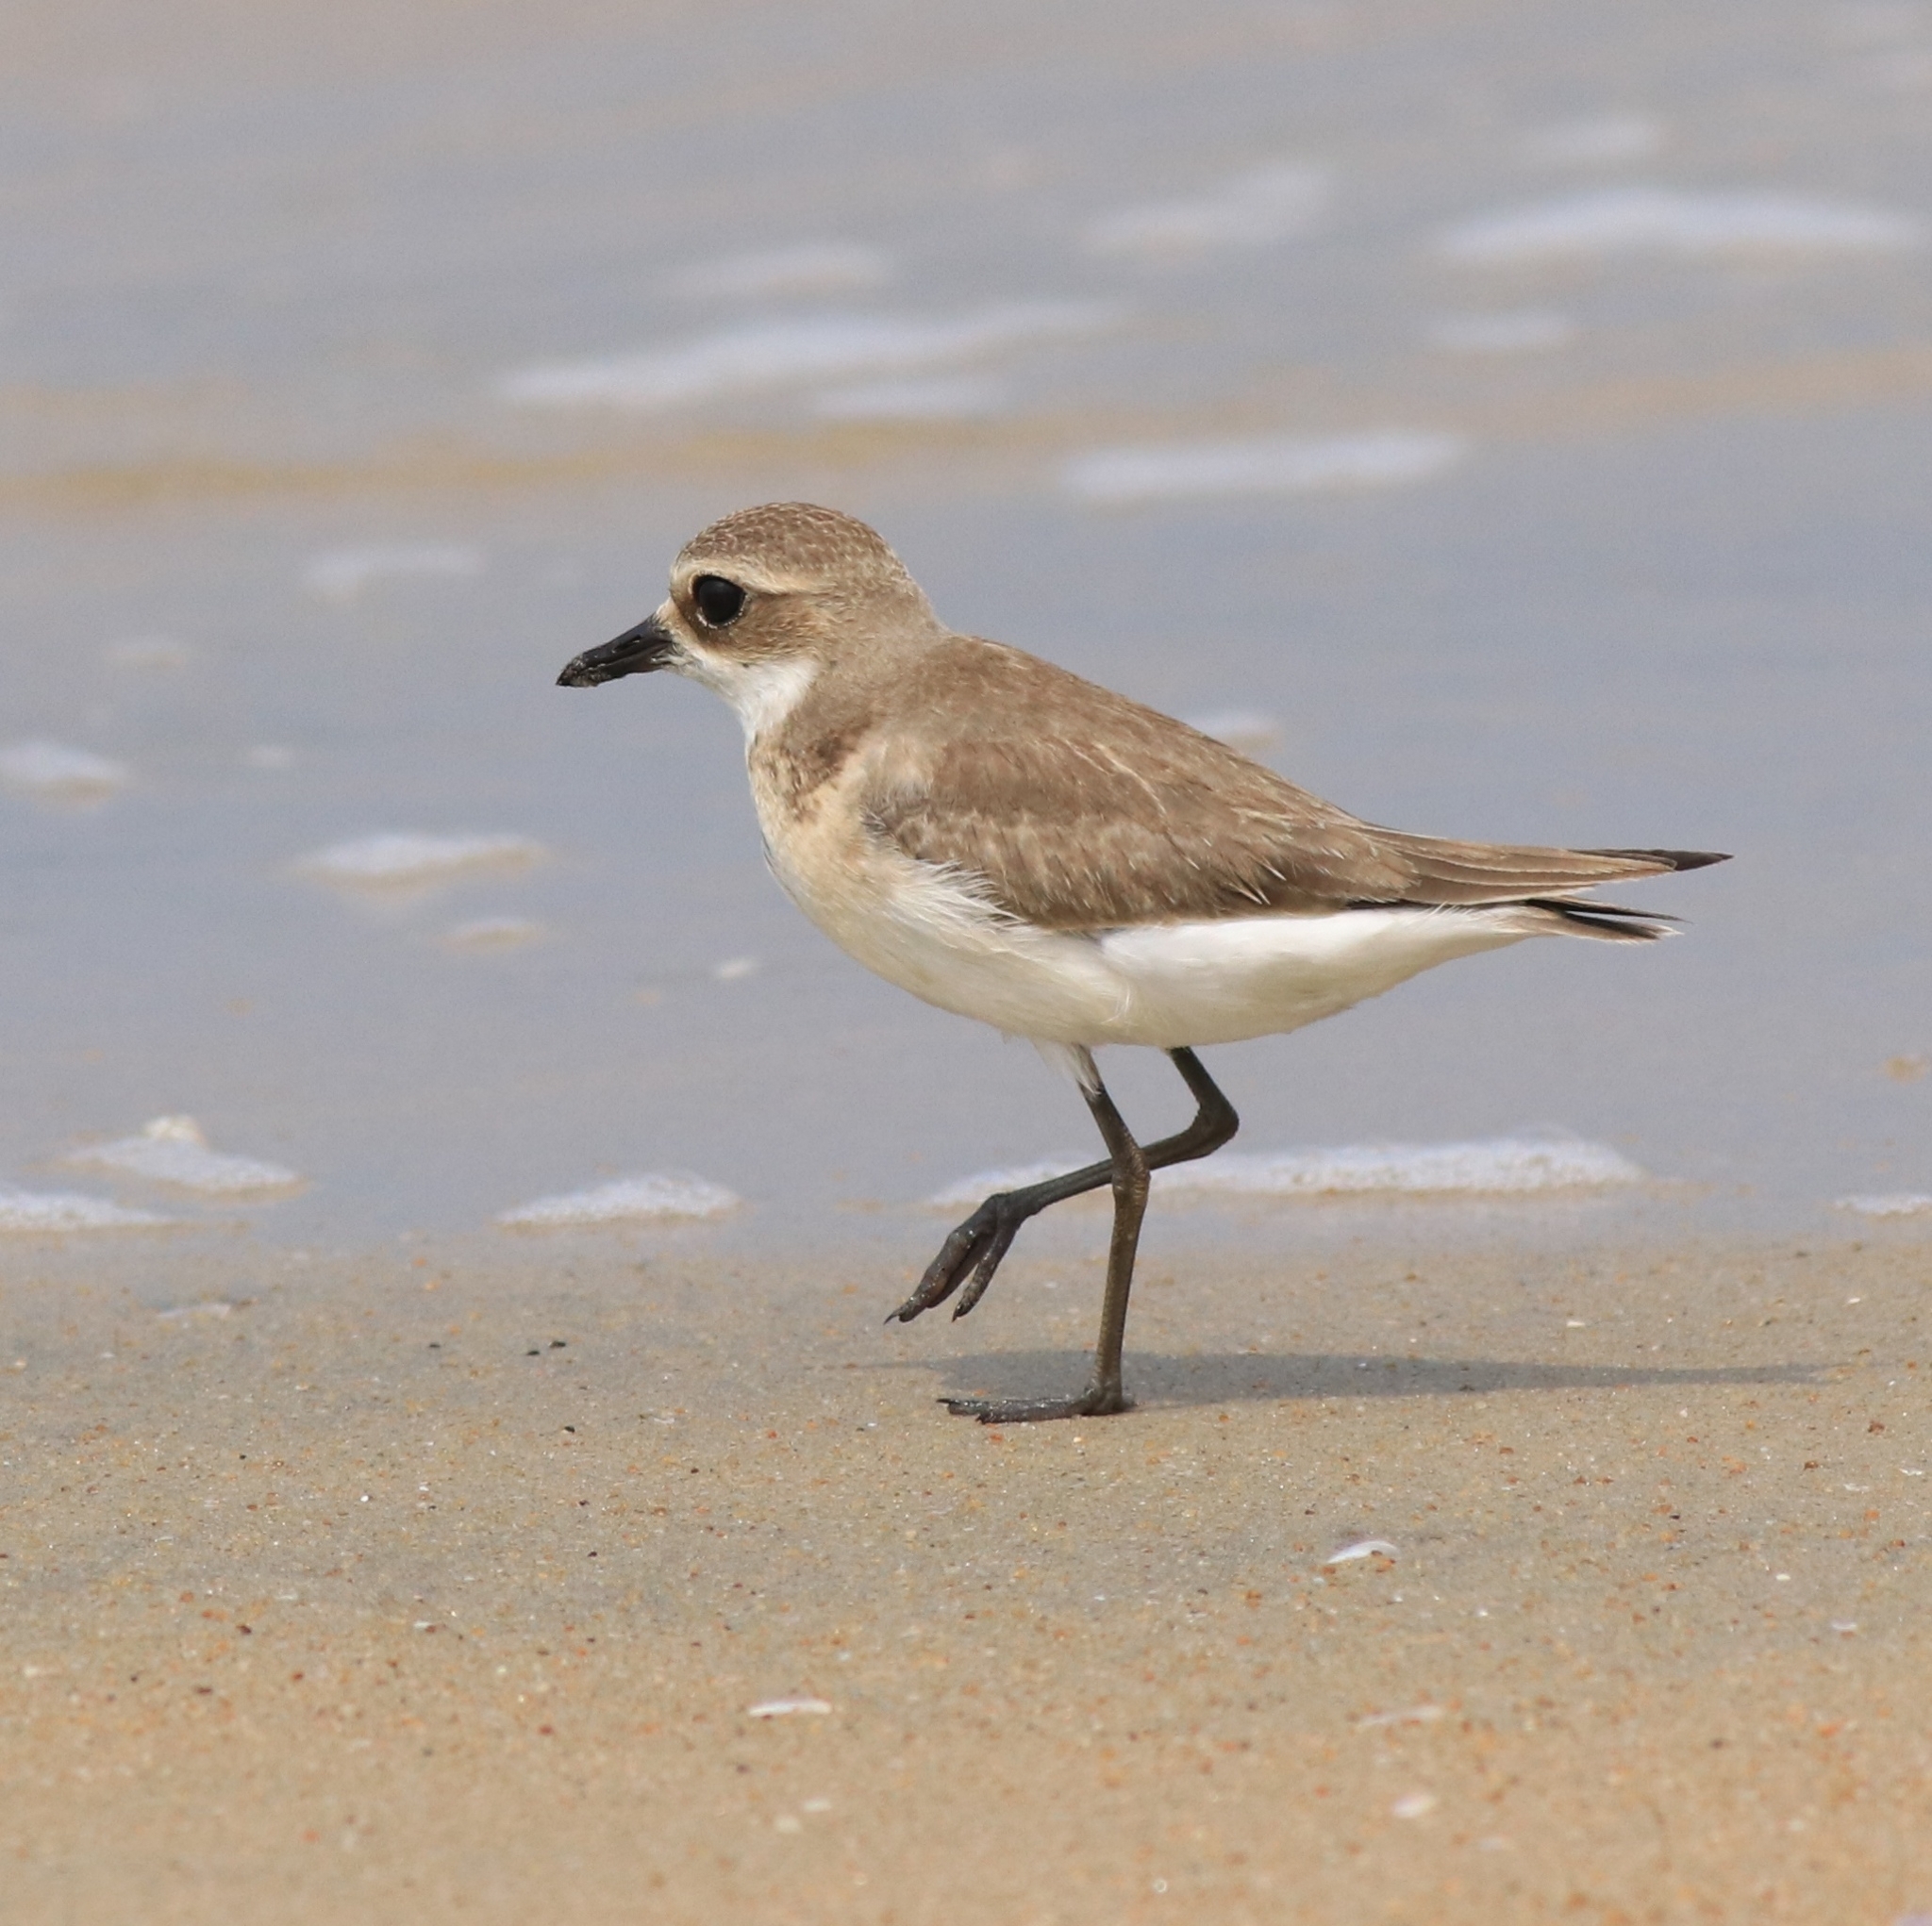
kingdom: Animalia
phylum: Chordata
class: Aves
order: Charadriiformes
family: Charadriidae
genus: Anarhynchus
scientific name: Anarhynchus
